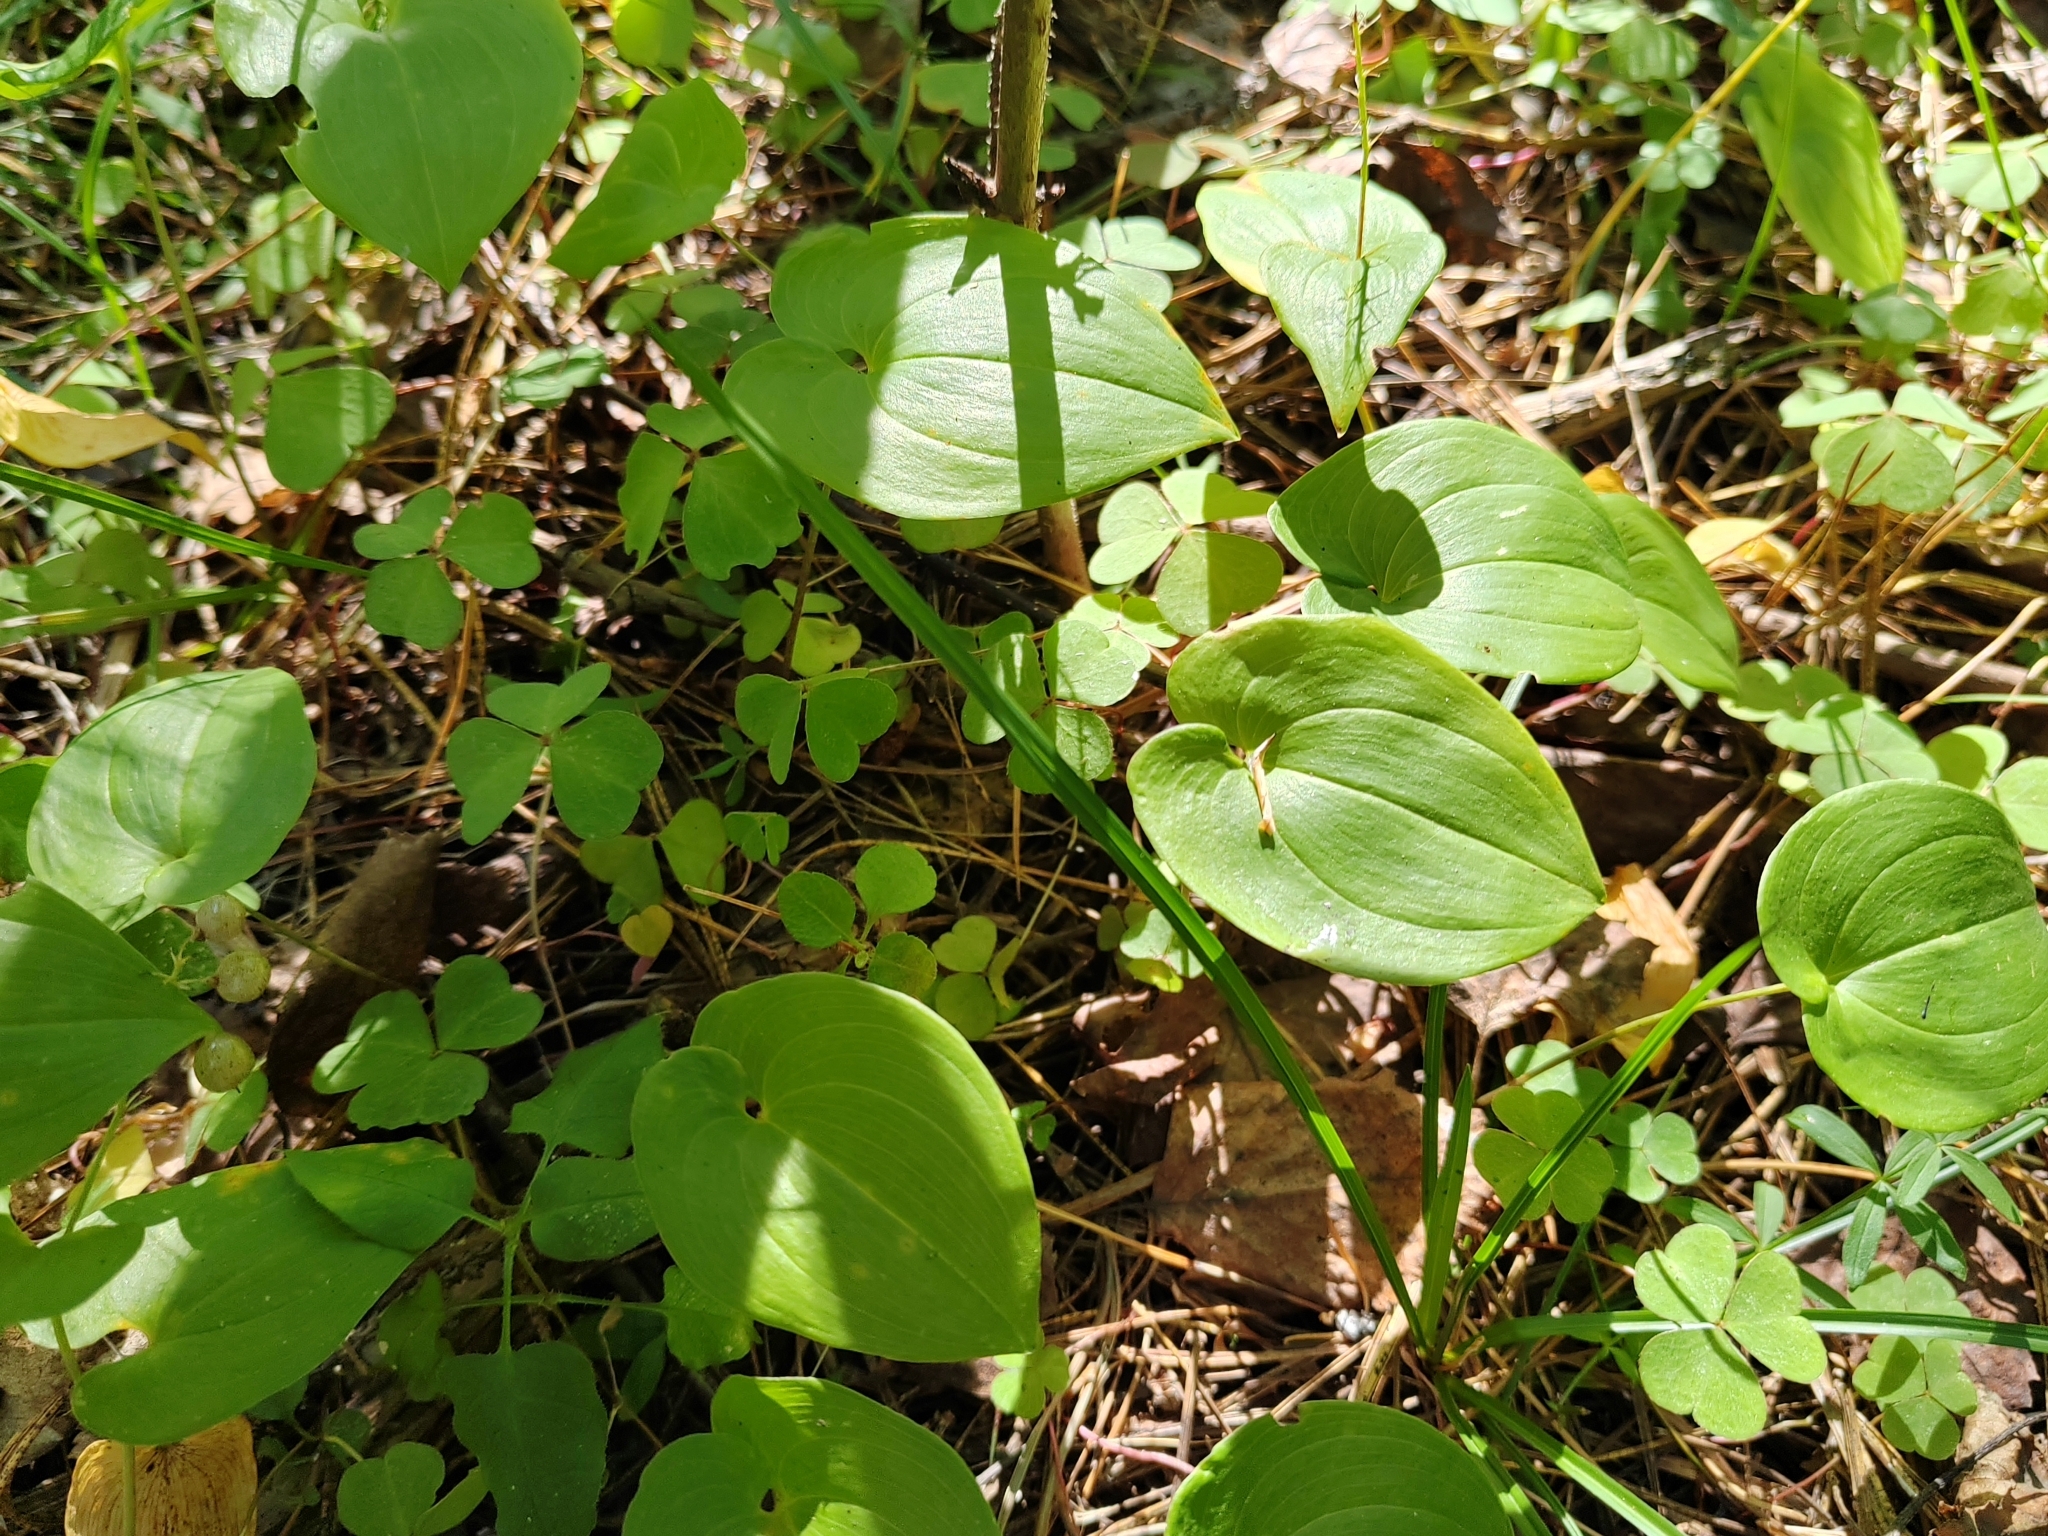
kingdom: Plantae
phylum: Tracheophyta
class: Liliopsida
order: Asparagales
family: Asparagaceae
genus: Maianthemum
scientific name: Maianthemum bifolium
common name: May lily
